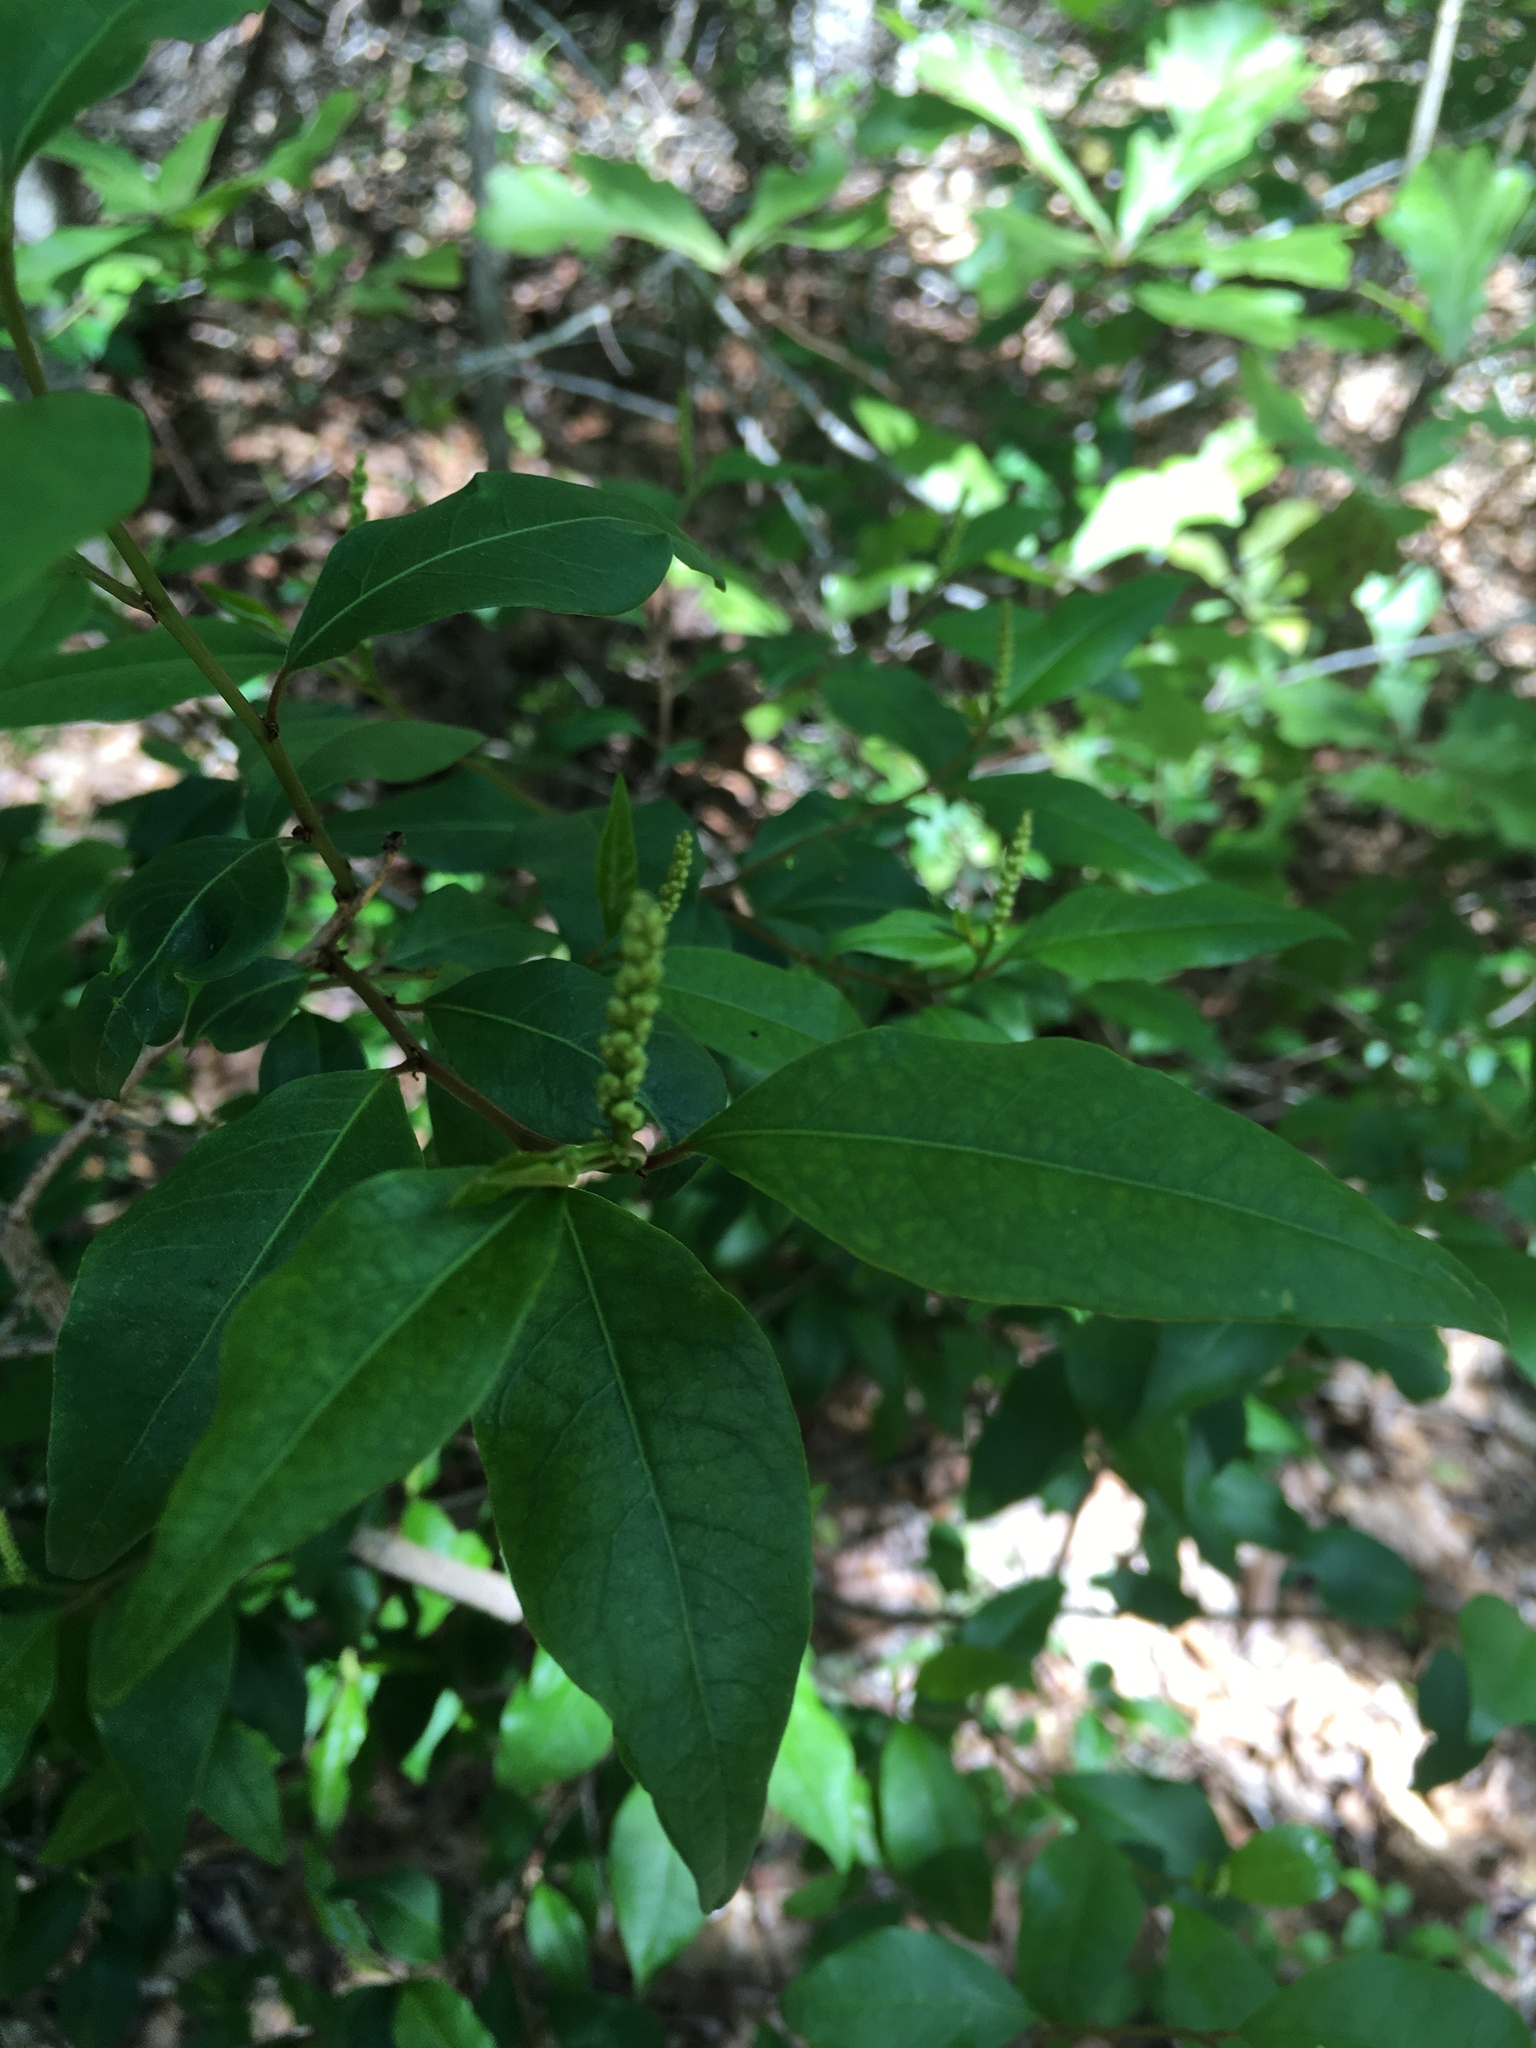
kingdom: Plantae
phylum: Tracheophyta
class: Magnoliopsida
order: Malpighiales
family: Euphorbiaceae
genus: Ditrysinia
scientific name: Ditrysinia fruticosa
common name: Gulf sebastian-bush
